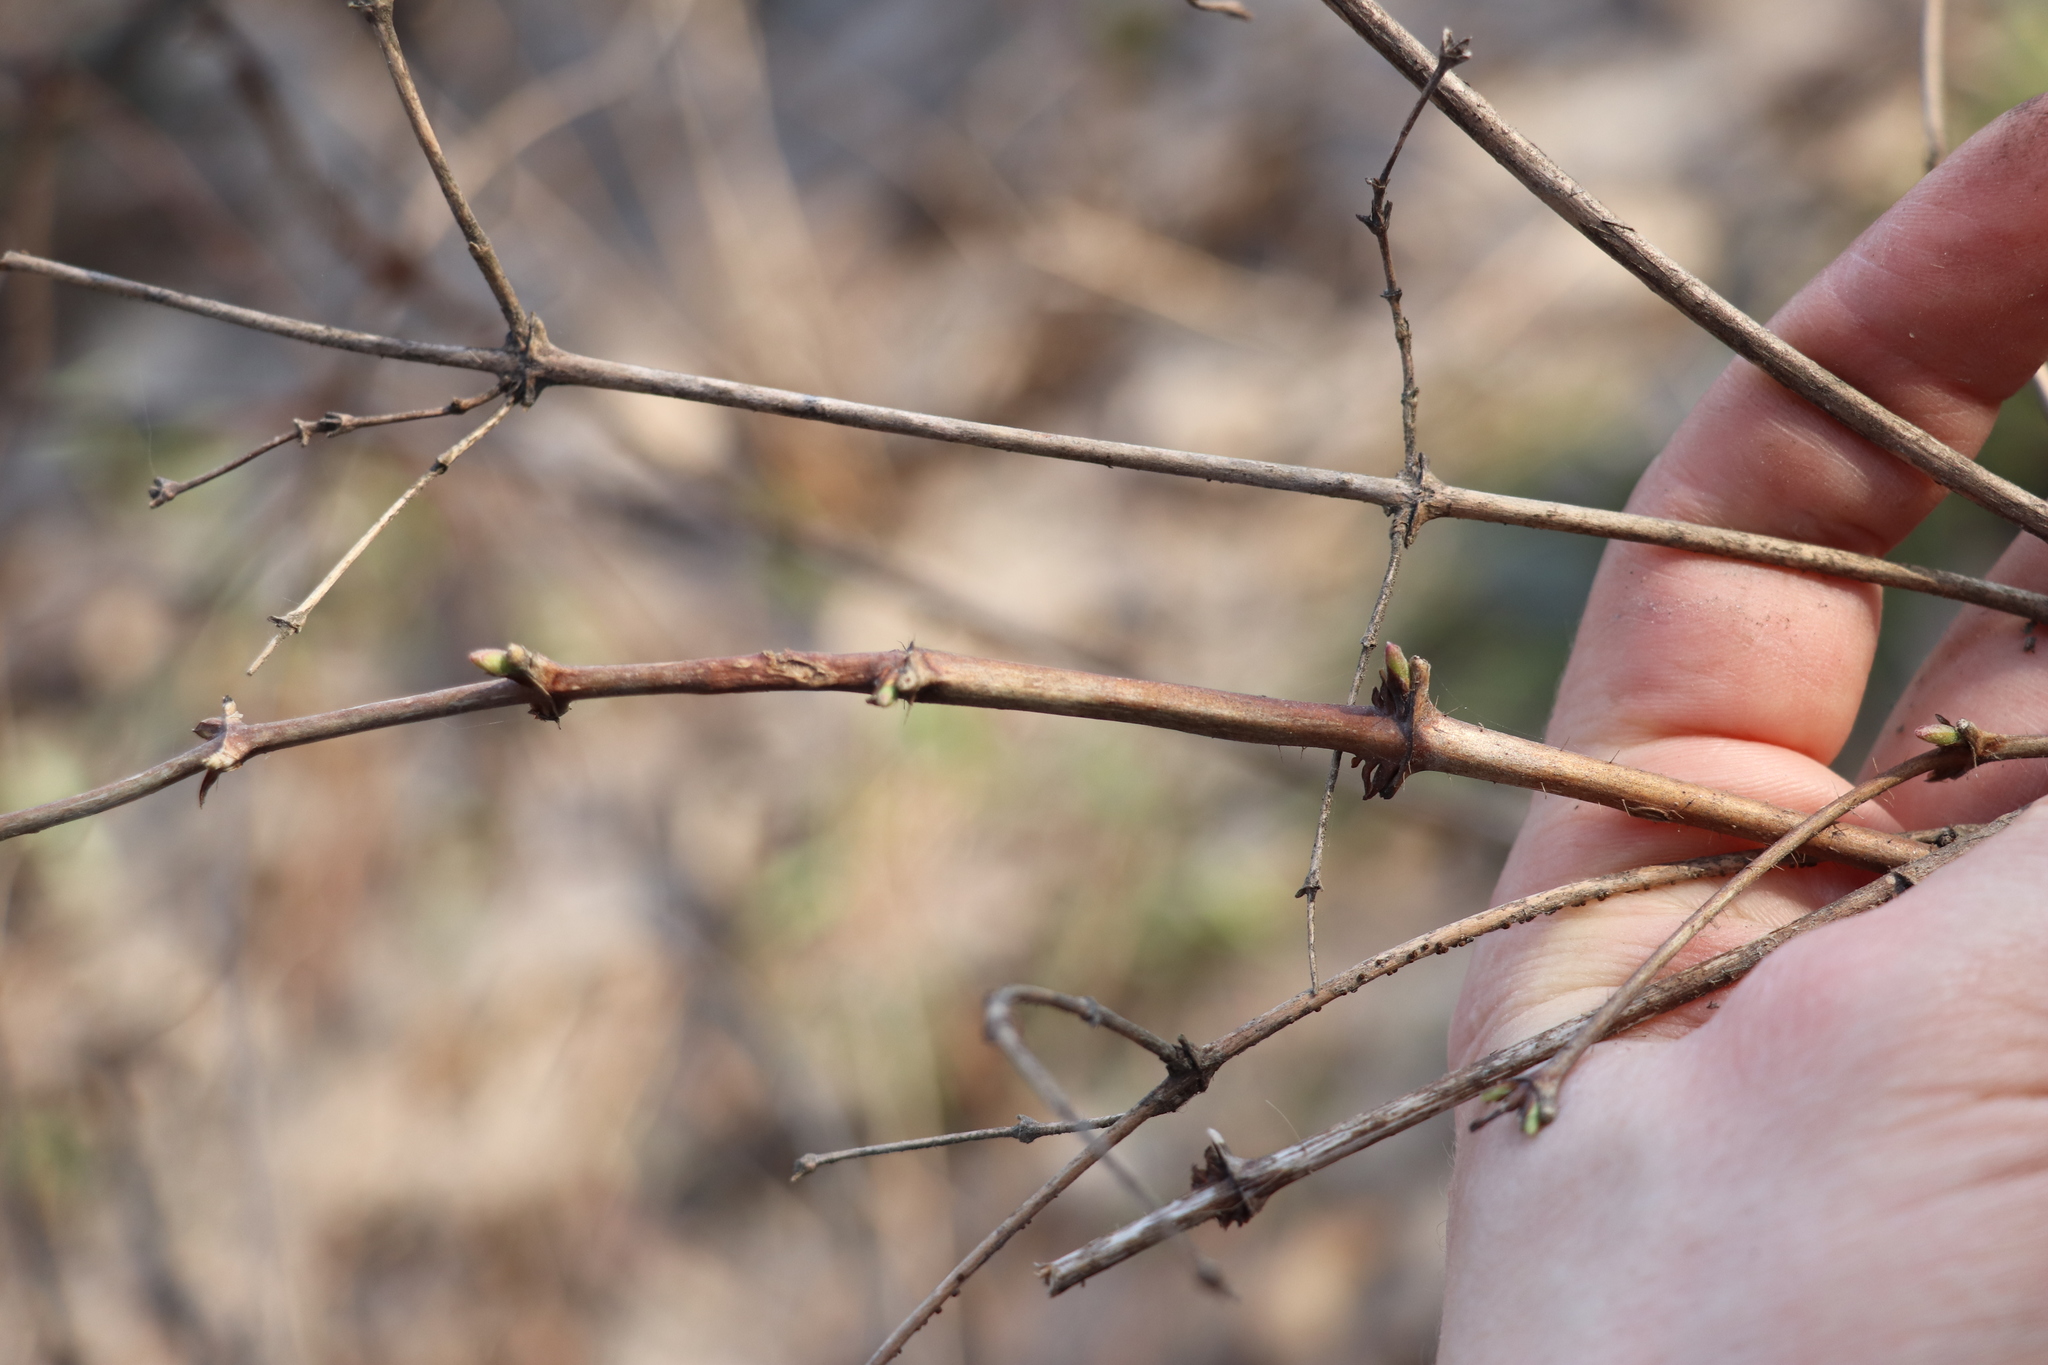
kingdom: Plantae
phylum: Tracheophyta
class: Magnoliopsida
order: Dipsacales
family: Caprifoliaceae
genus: Lonicera
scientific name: Lonicera caerulea
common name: Blue honeysuckle
